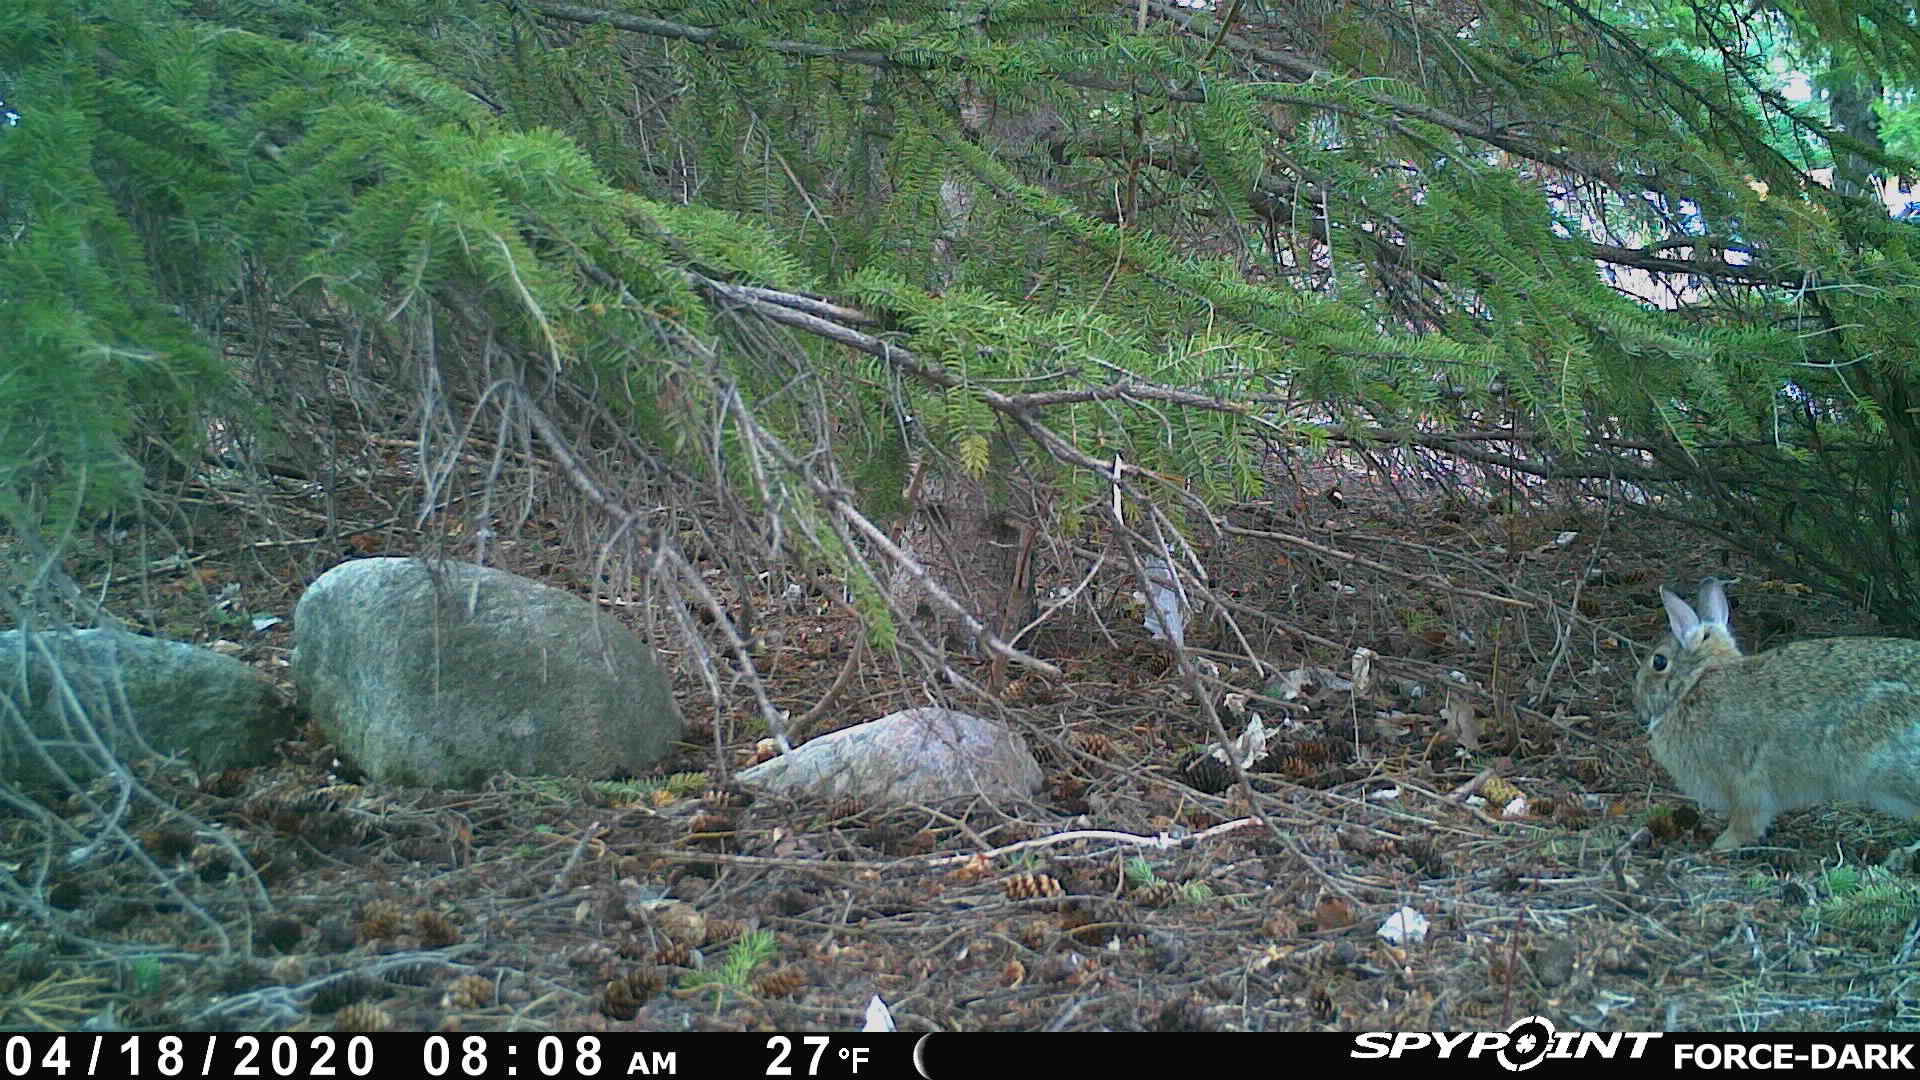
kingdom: Animalia
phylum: Chordata
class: Mammalia
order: Lagomorpha
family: Leporidae
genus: Sylvilagus
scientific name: Sylvilagus floridanus
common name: Eastern cottontail
